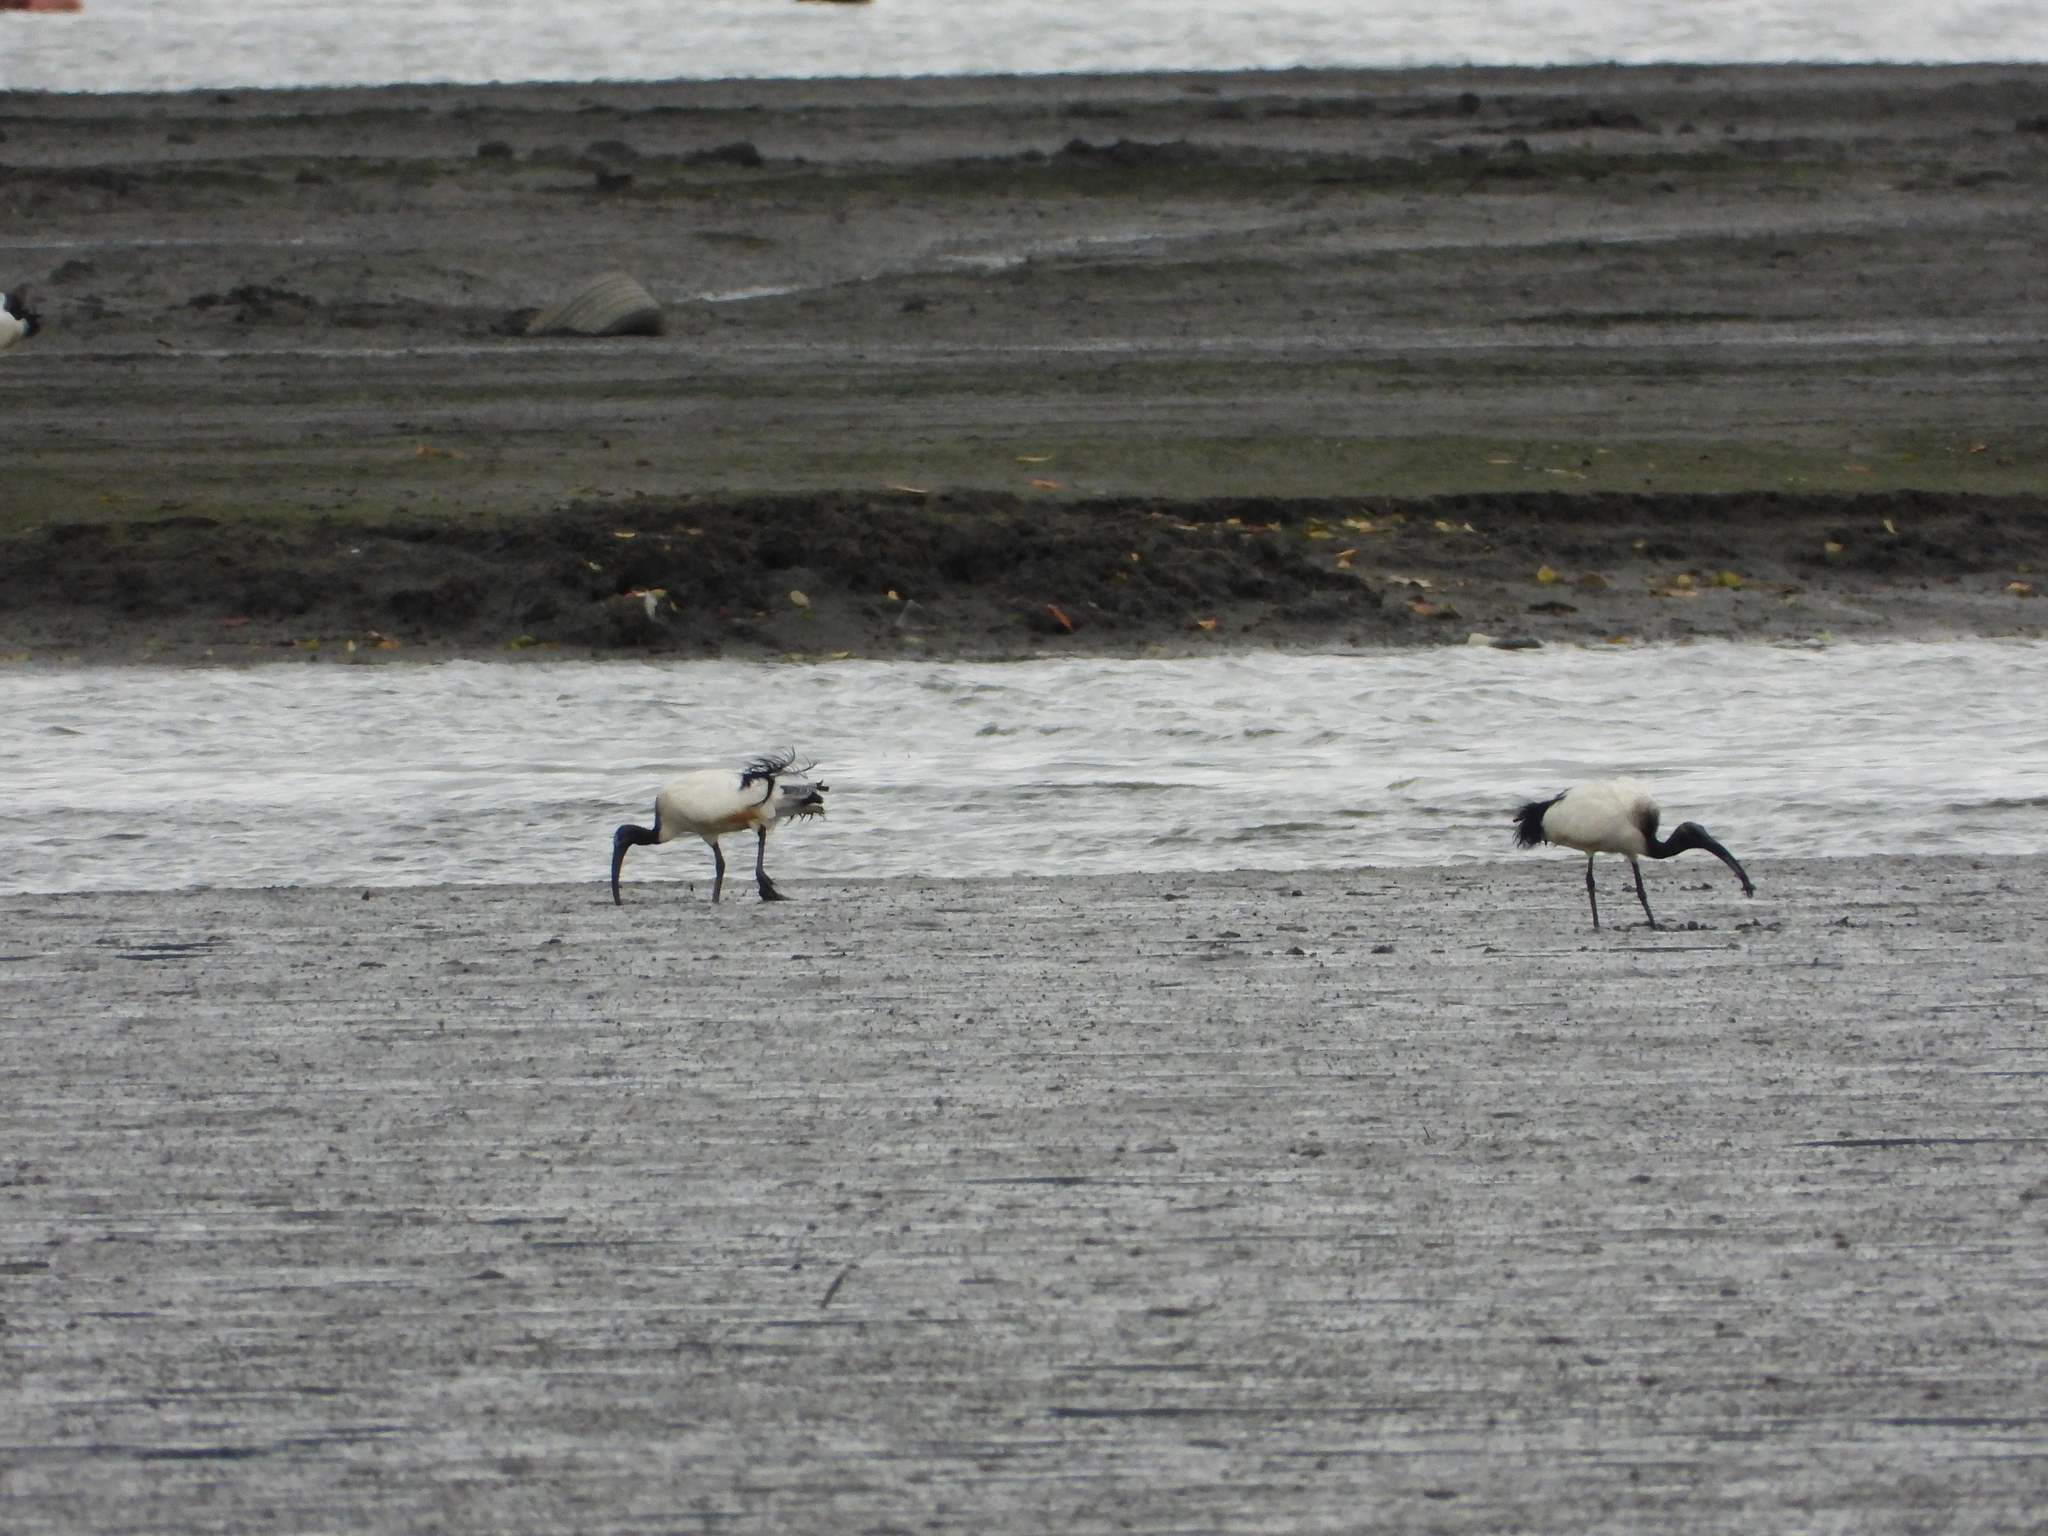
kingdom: Animalia
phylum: Chordata
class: Aves
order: Pelecaniformes
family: Threskiornithidae
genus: Threskiornis
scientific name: Threskiornis aethiopicus
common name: Sacred ibis
